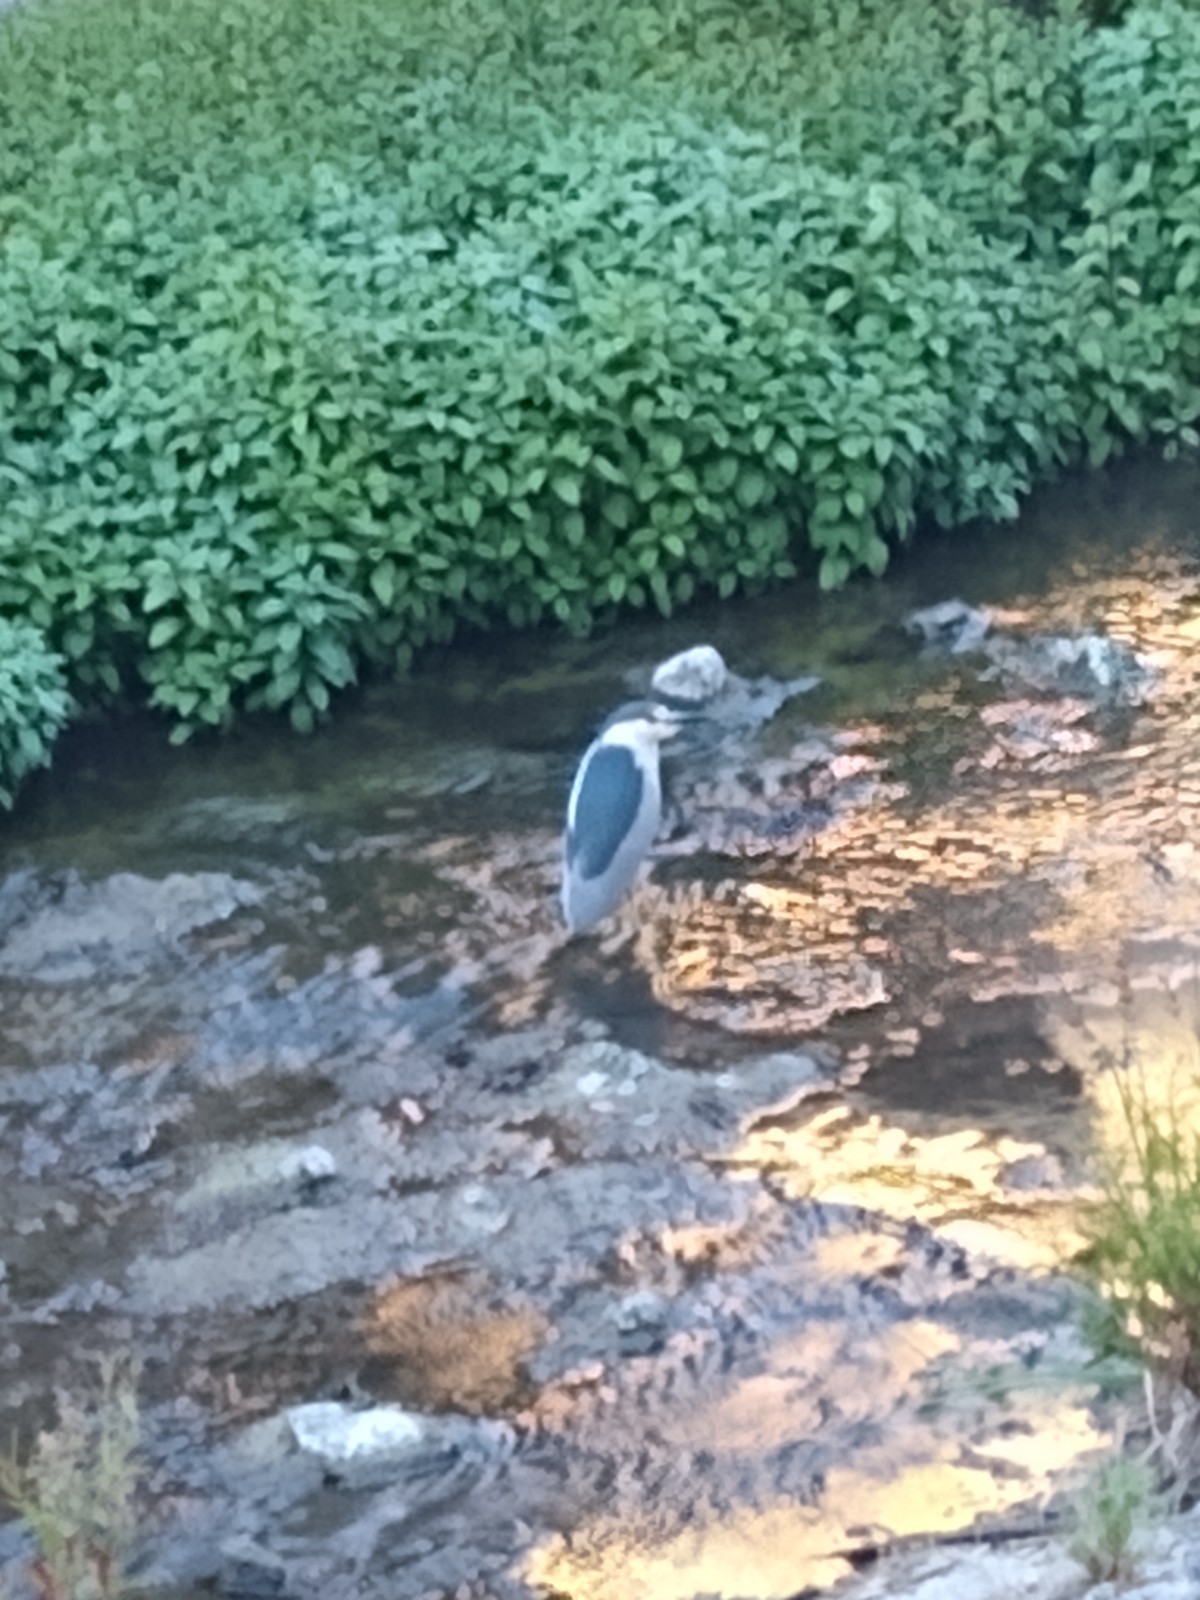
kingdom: Animalia
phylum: Chordata
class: Aves
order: Pelecaniformes
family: Ardeidae
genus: Nycticorax
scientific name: Nycticorax nycticorax
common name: Black-crowned night heron
